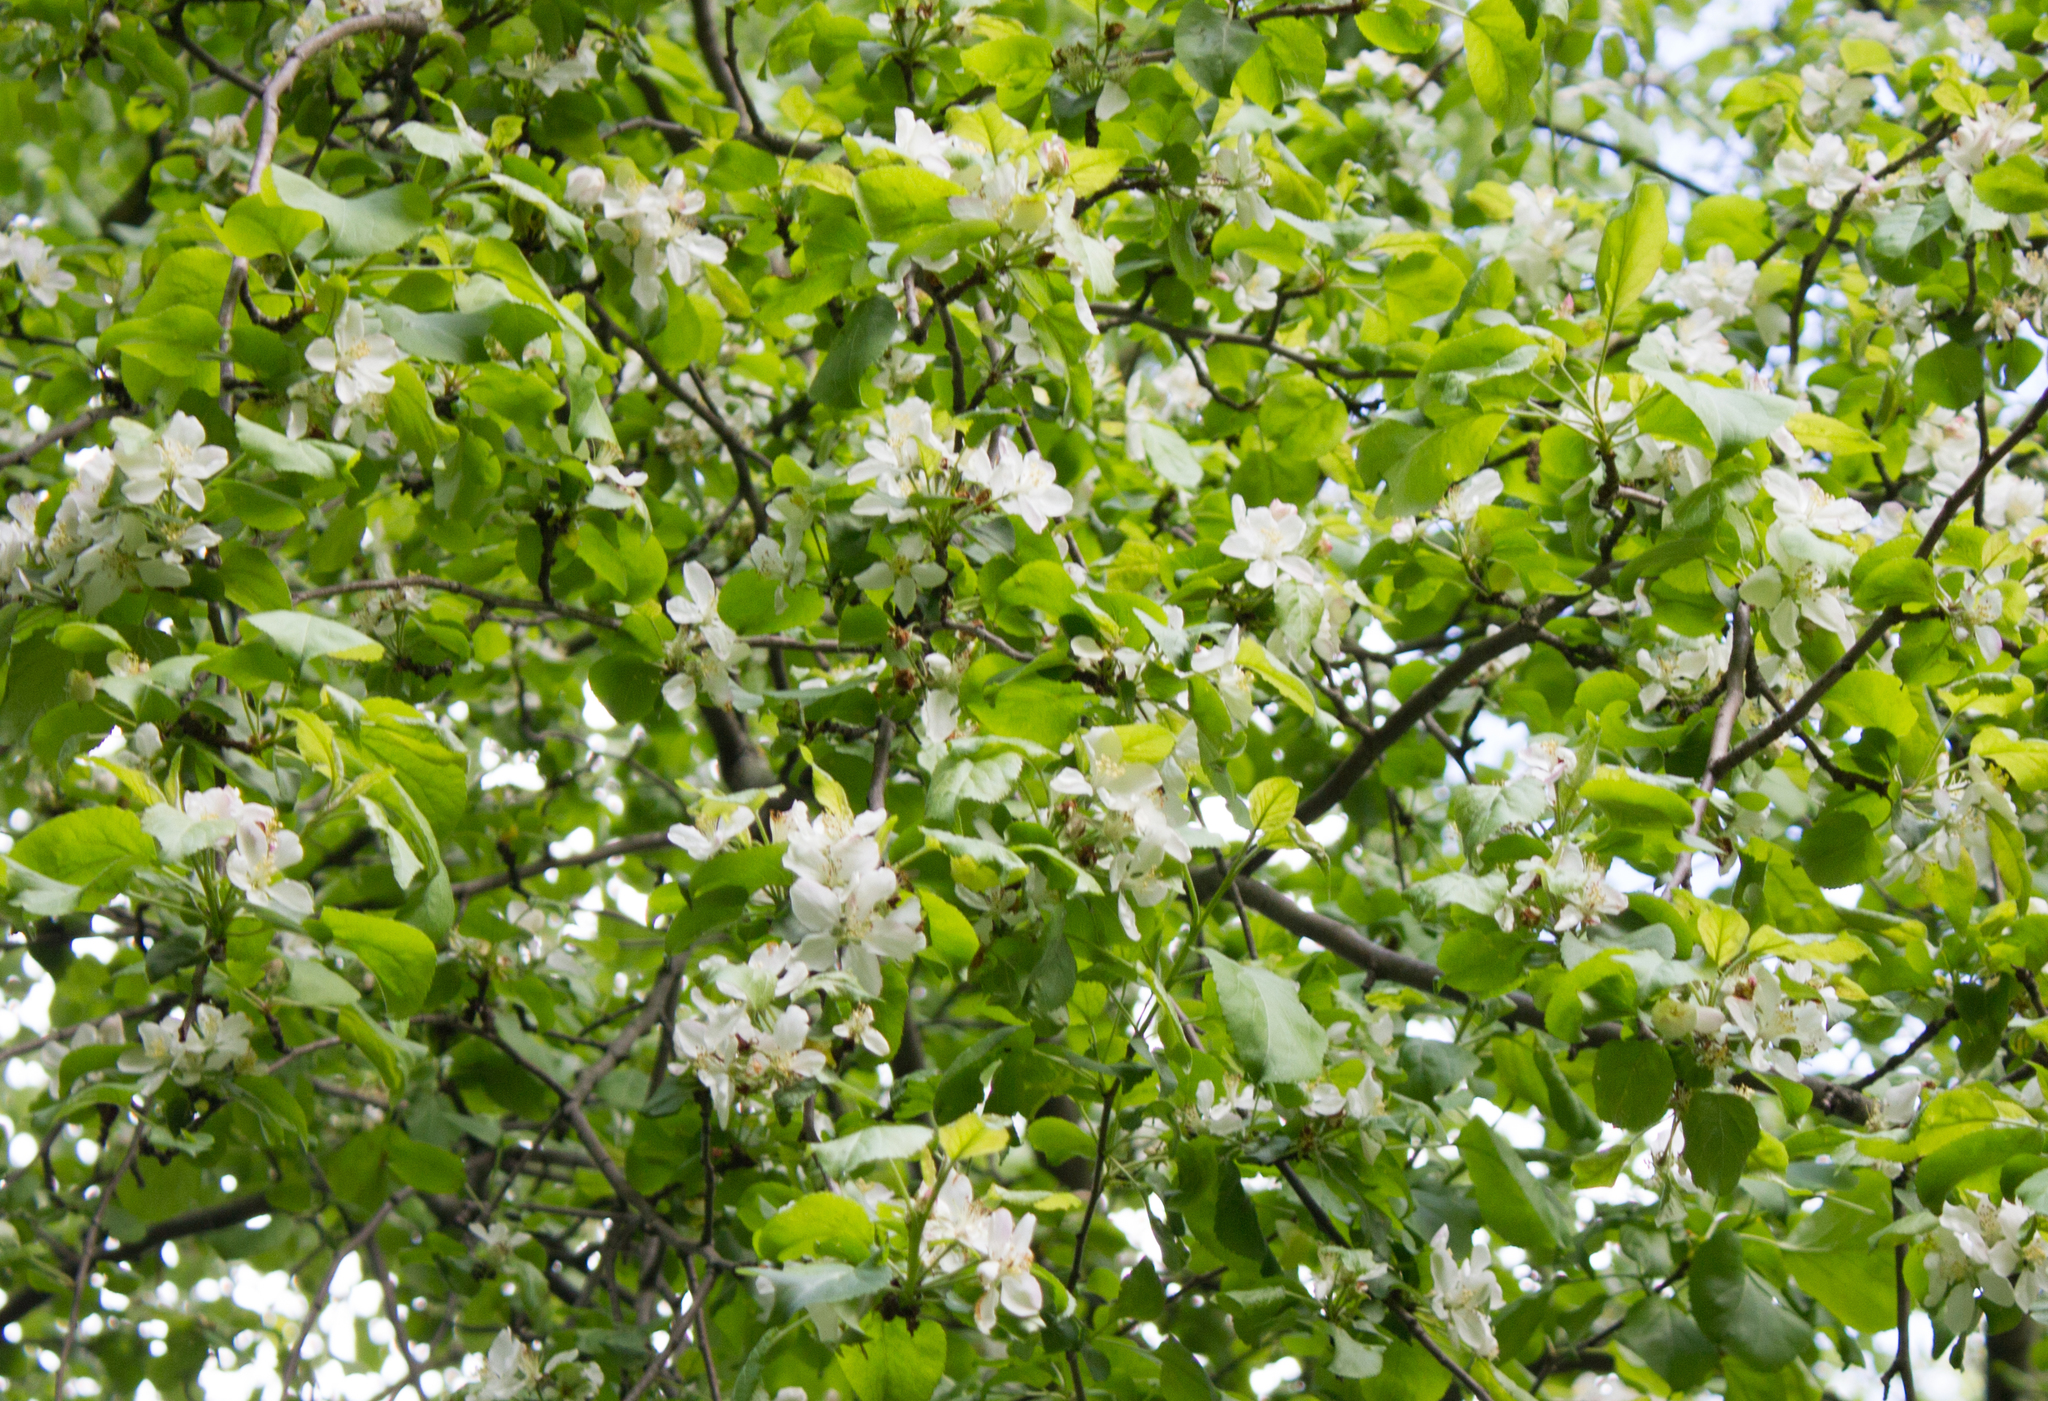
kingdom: Plantae
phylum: Tracheophyta
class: Magnoliopsida
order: Rosales
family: Rosaceae
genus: Malus
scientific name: Malus domestica
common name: Apple
